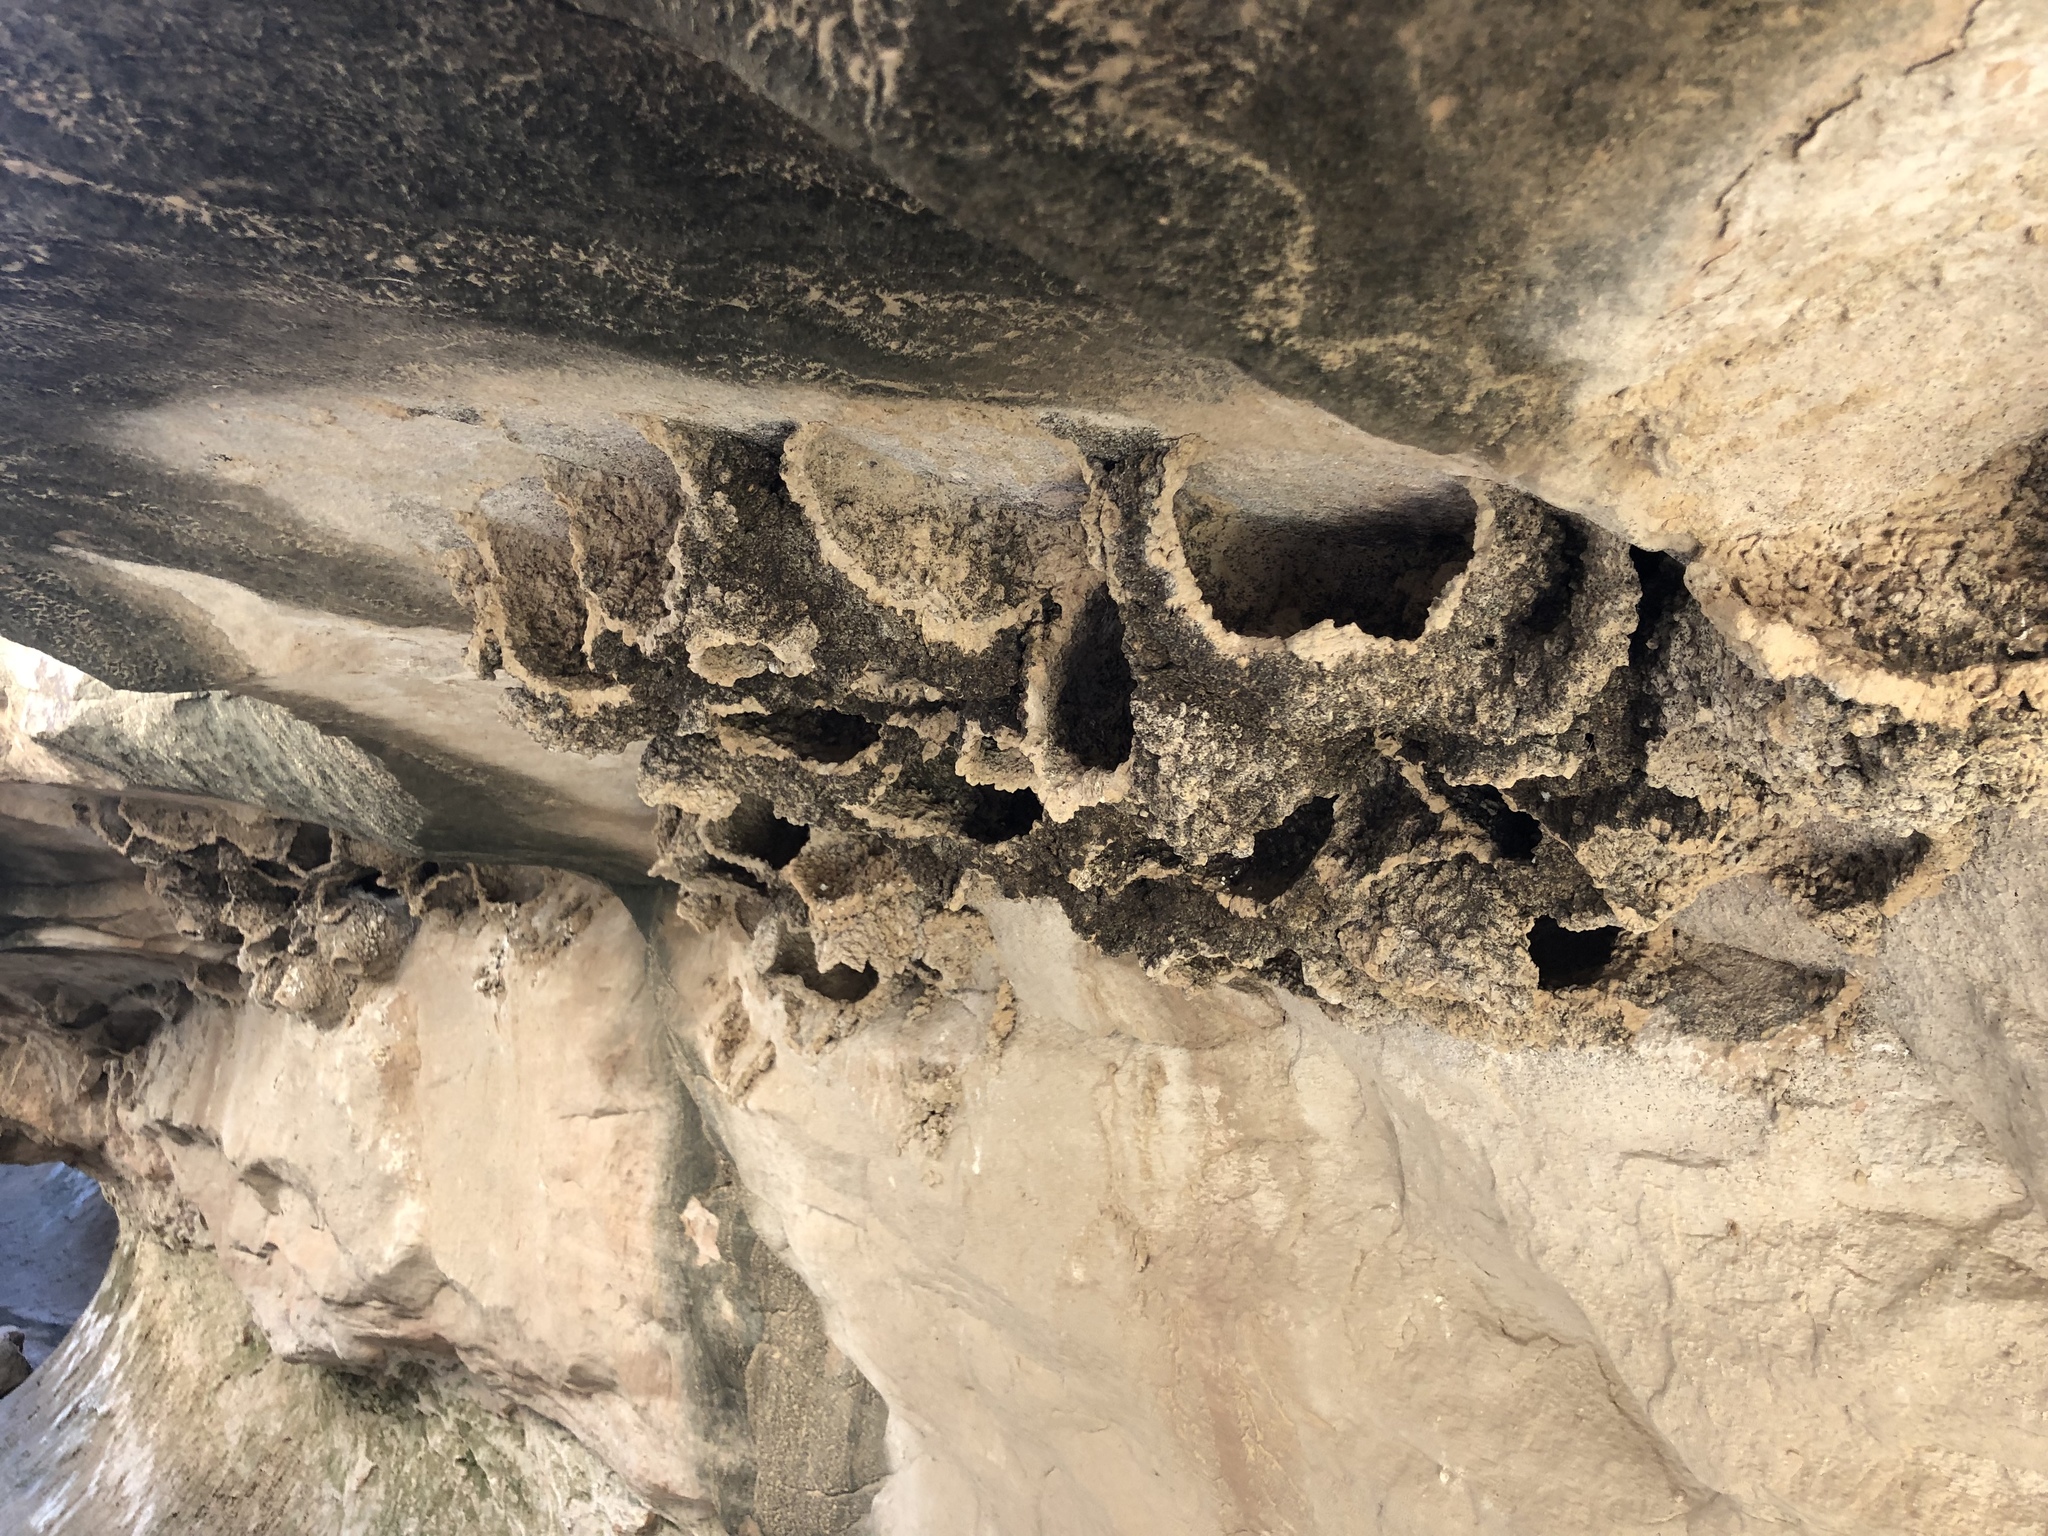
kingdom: Animalia
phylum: Chordata
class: Aves
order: Passeriformes
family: Hirundinidae
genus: Petrochelidon
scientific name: Petrochelidon pyrrhonota
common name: American cliff swallow
